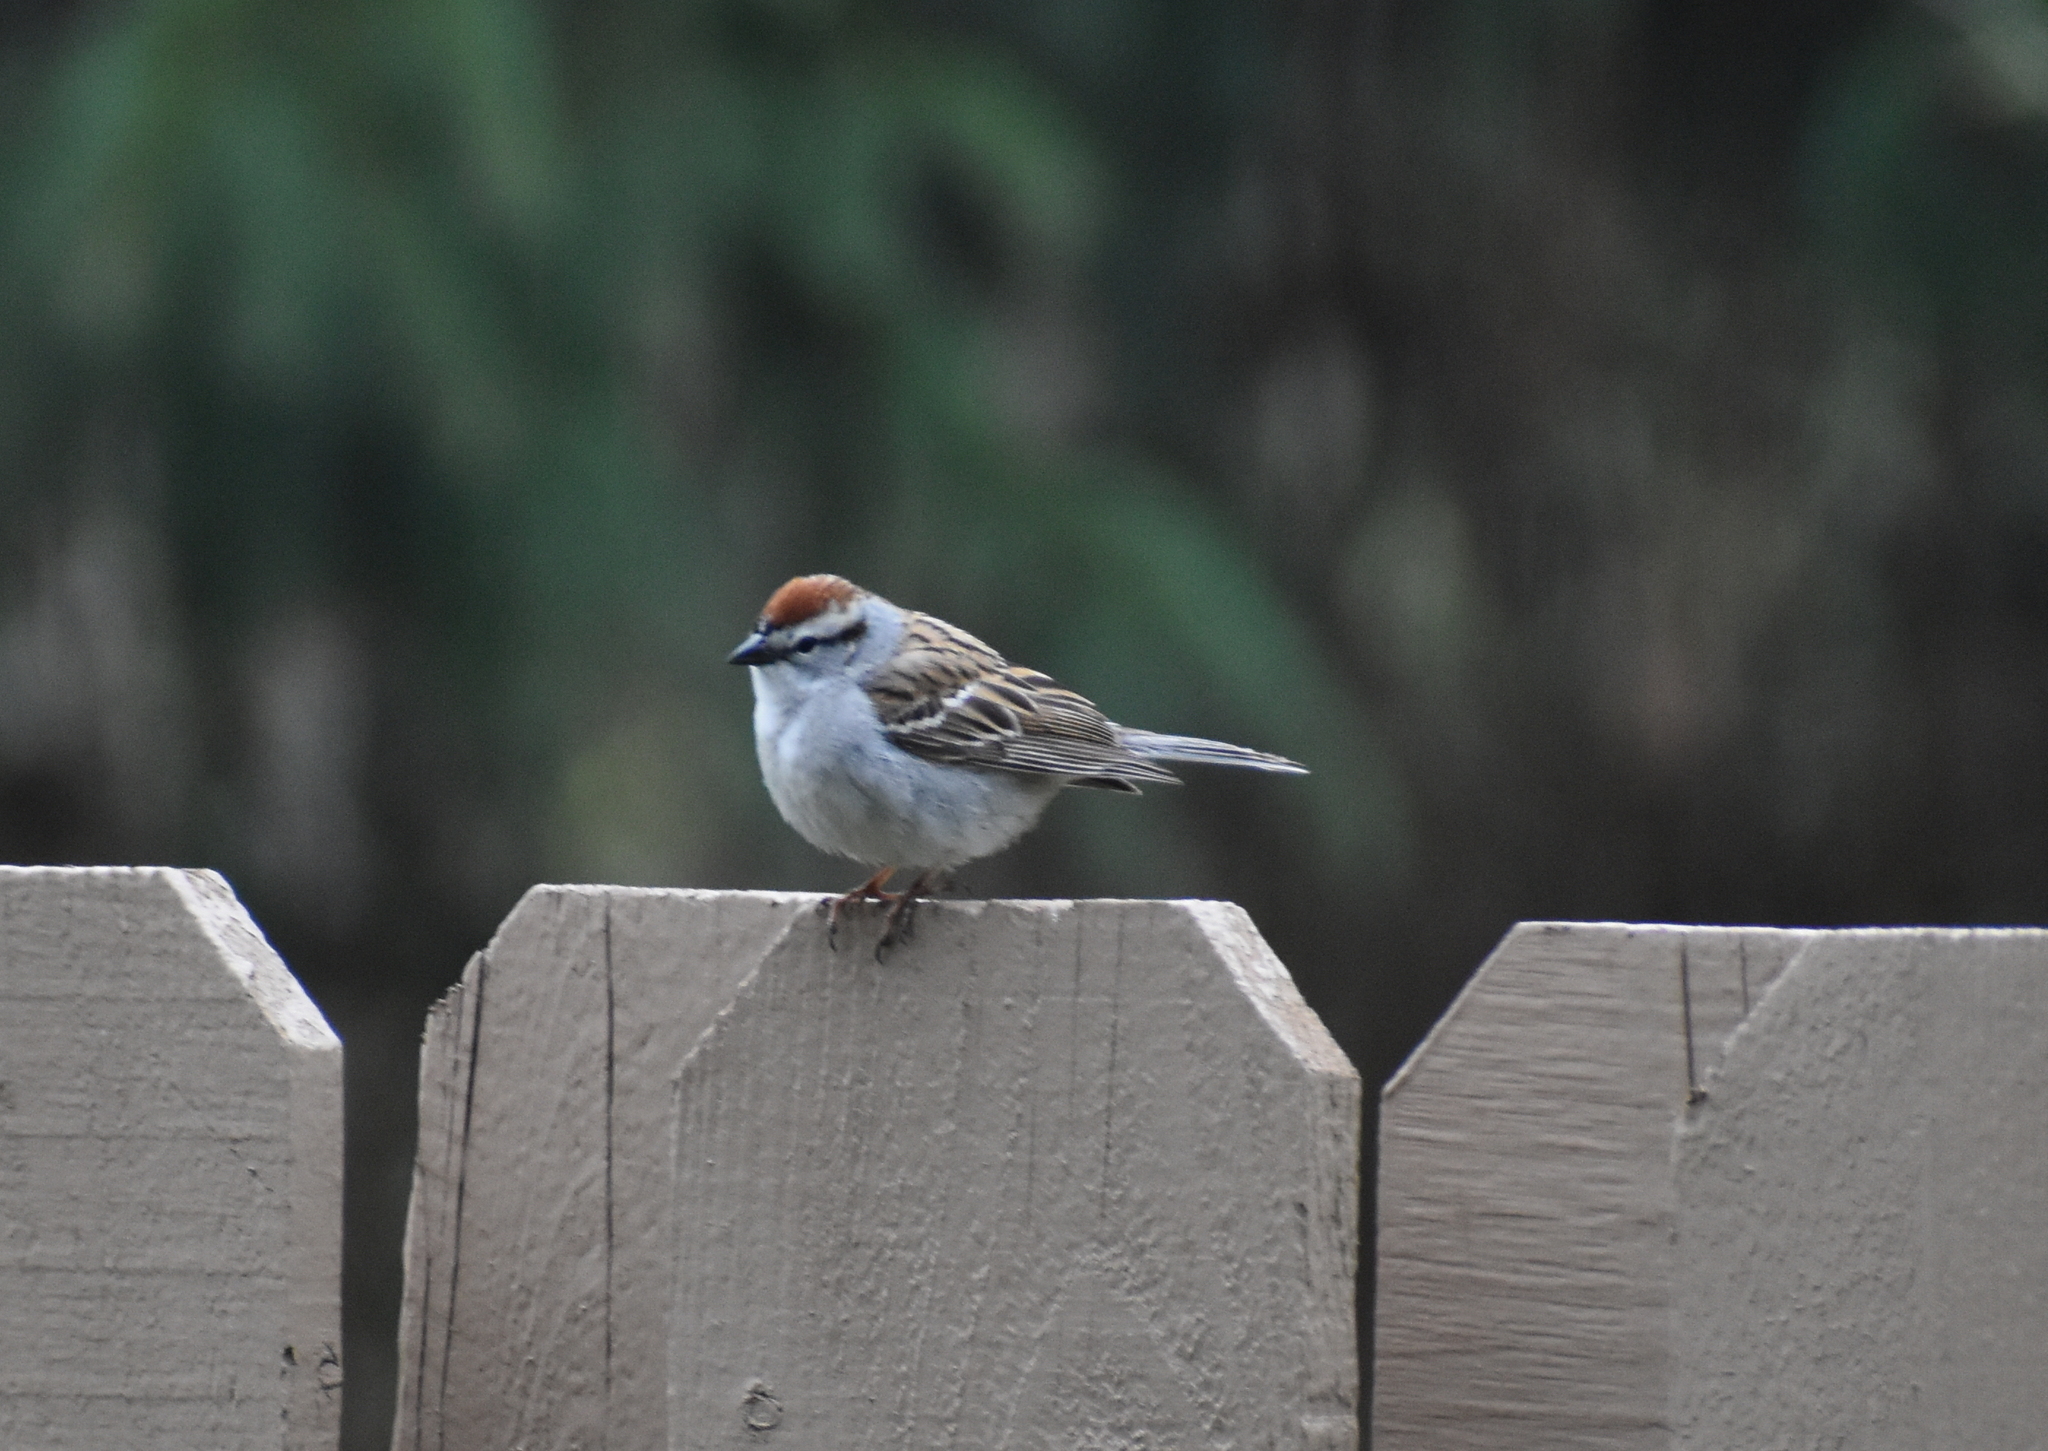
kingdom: Animalia
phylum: Chordata
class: Aves
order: Passeriformes
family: Passerellidae
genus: Spizella
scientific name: Spizella passerina
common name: Chipping sparrow
